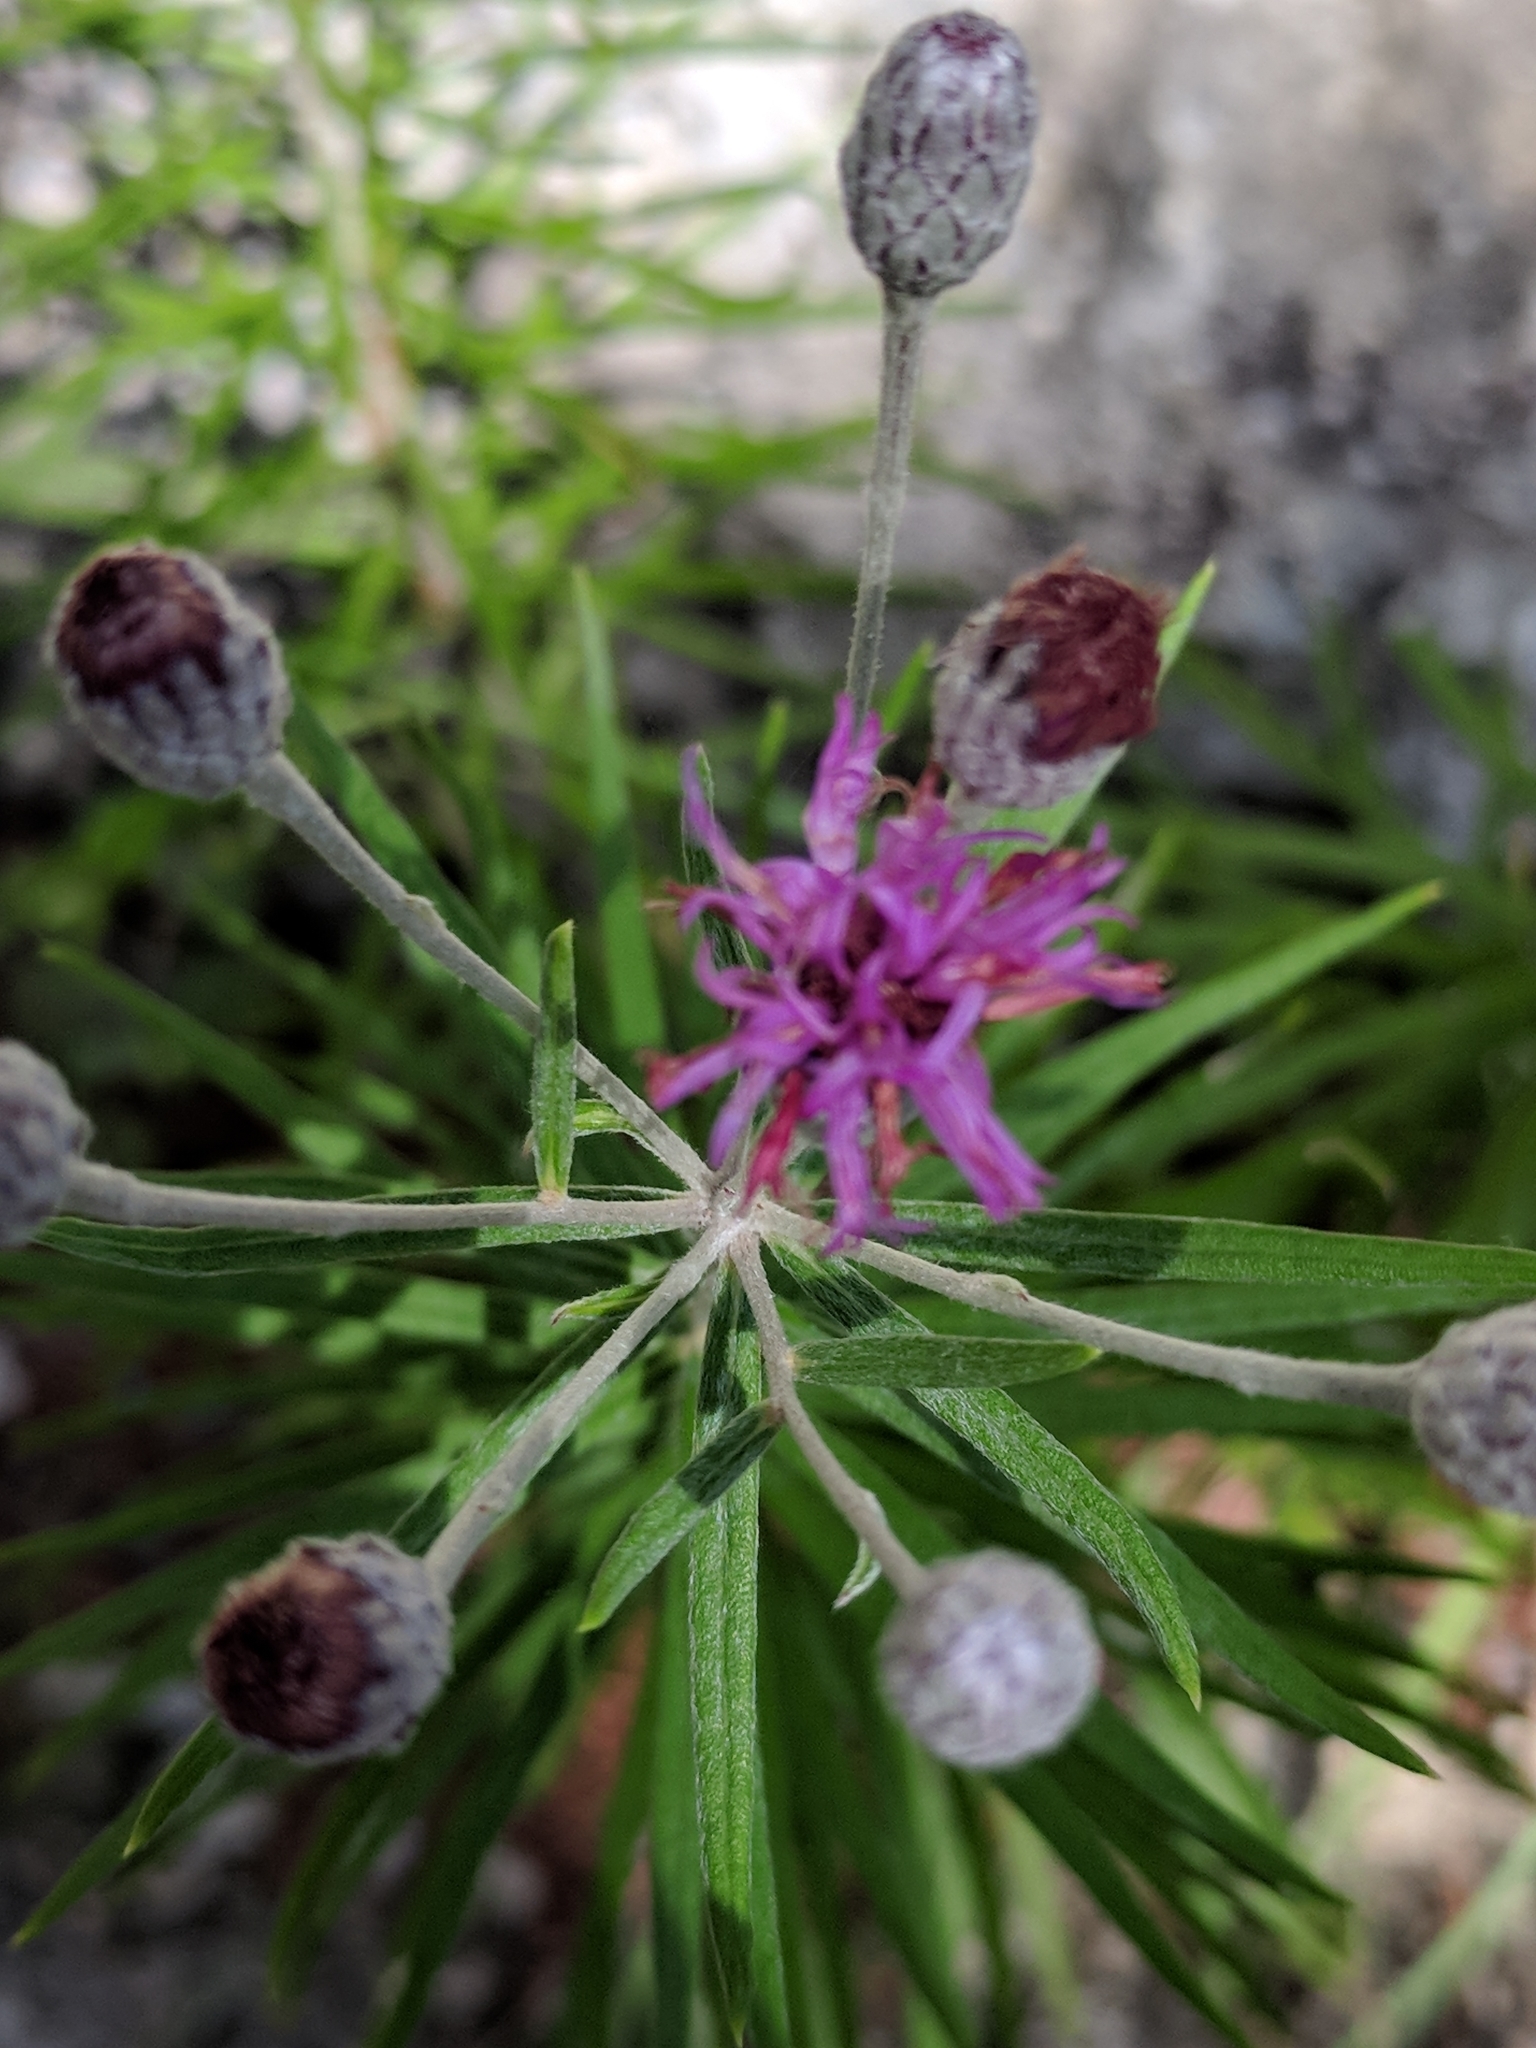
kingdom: Plantae
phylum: Tracheophyta
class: Magnoliopsida
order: Asterales
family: Asteraceae
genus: Vernonia
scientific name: Vernonia lindheimeri
